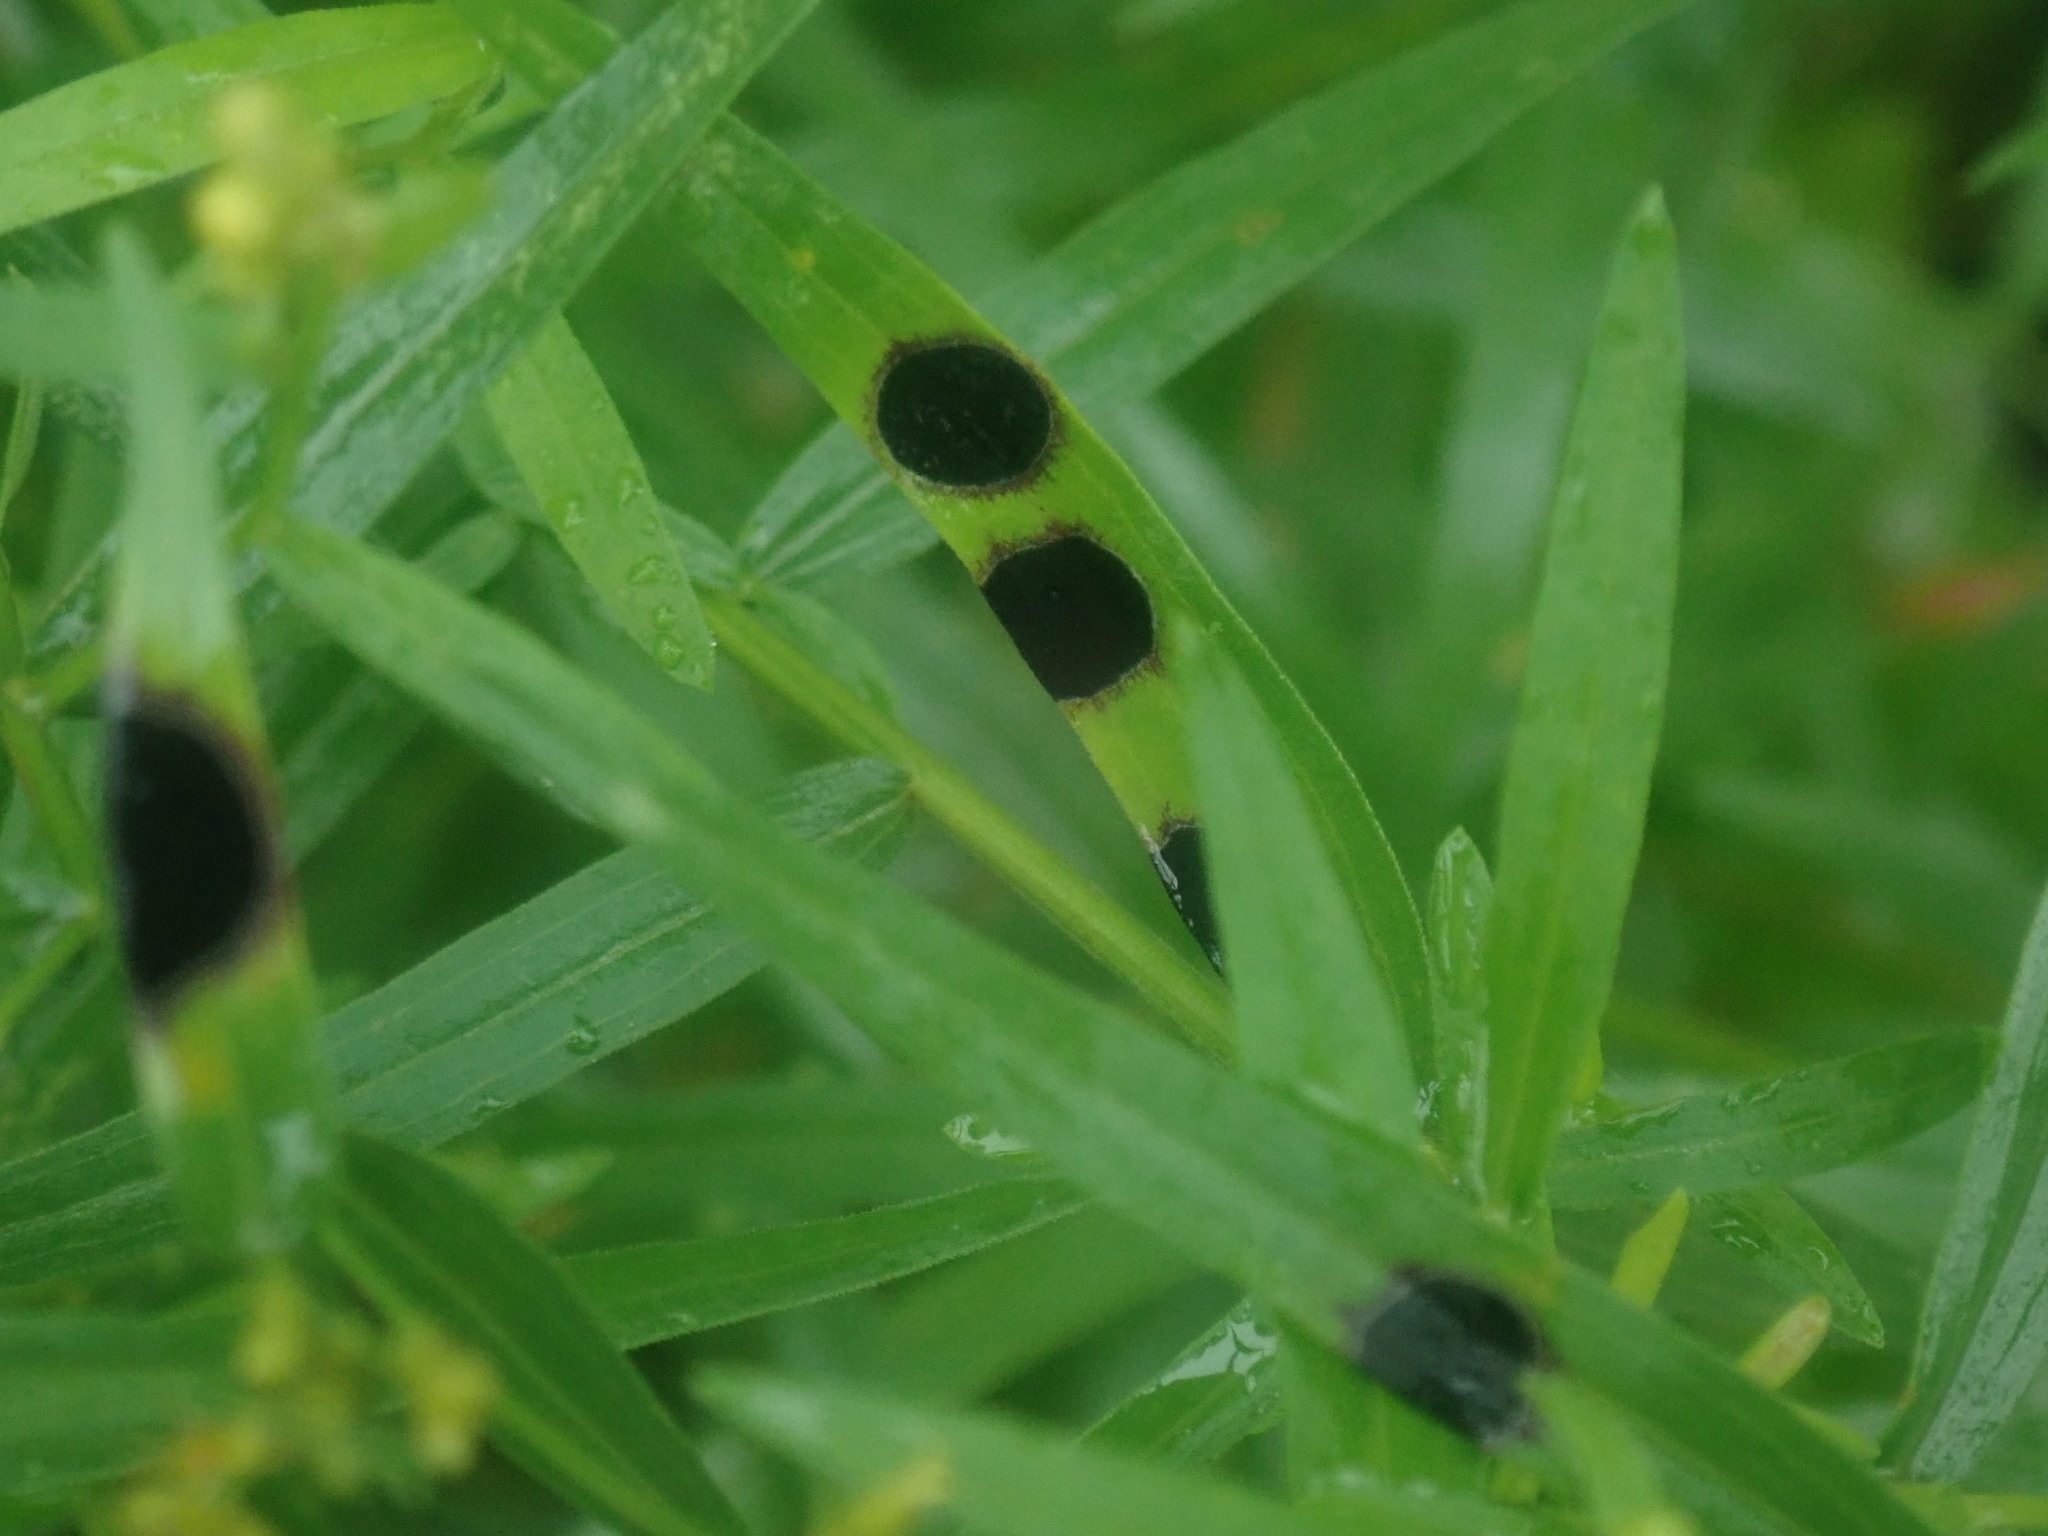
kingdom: Animalia
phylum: Arthropoda
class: Insecta
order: Diptera
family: Cecidomyiidae
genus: Asteromyia
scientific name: Asteromyia euthamiae
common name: Euthamia leaf gall midge
